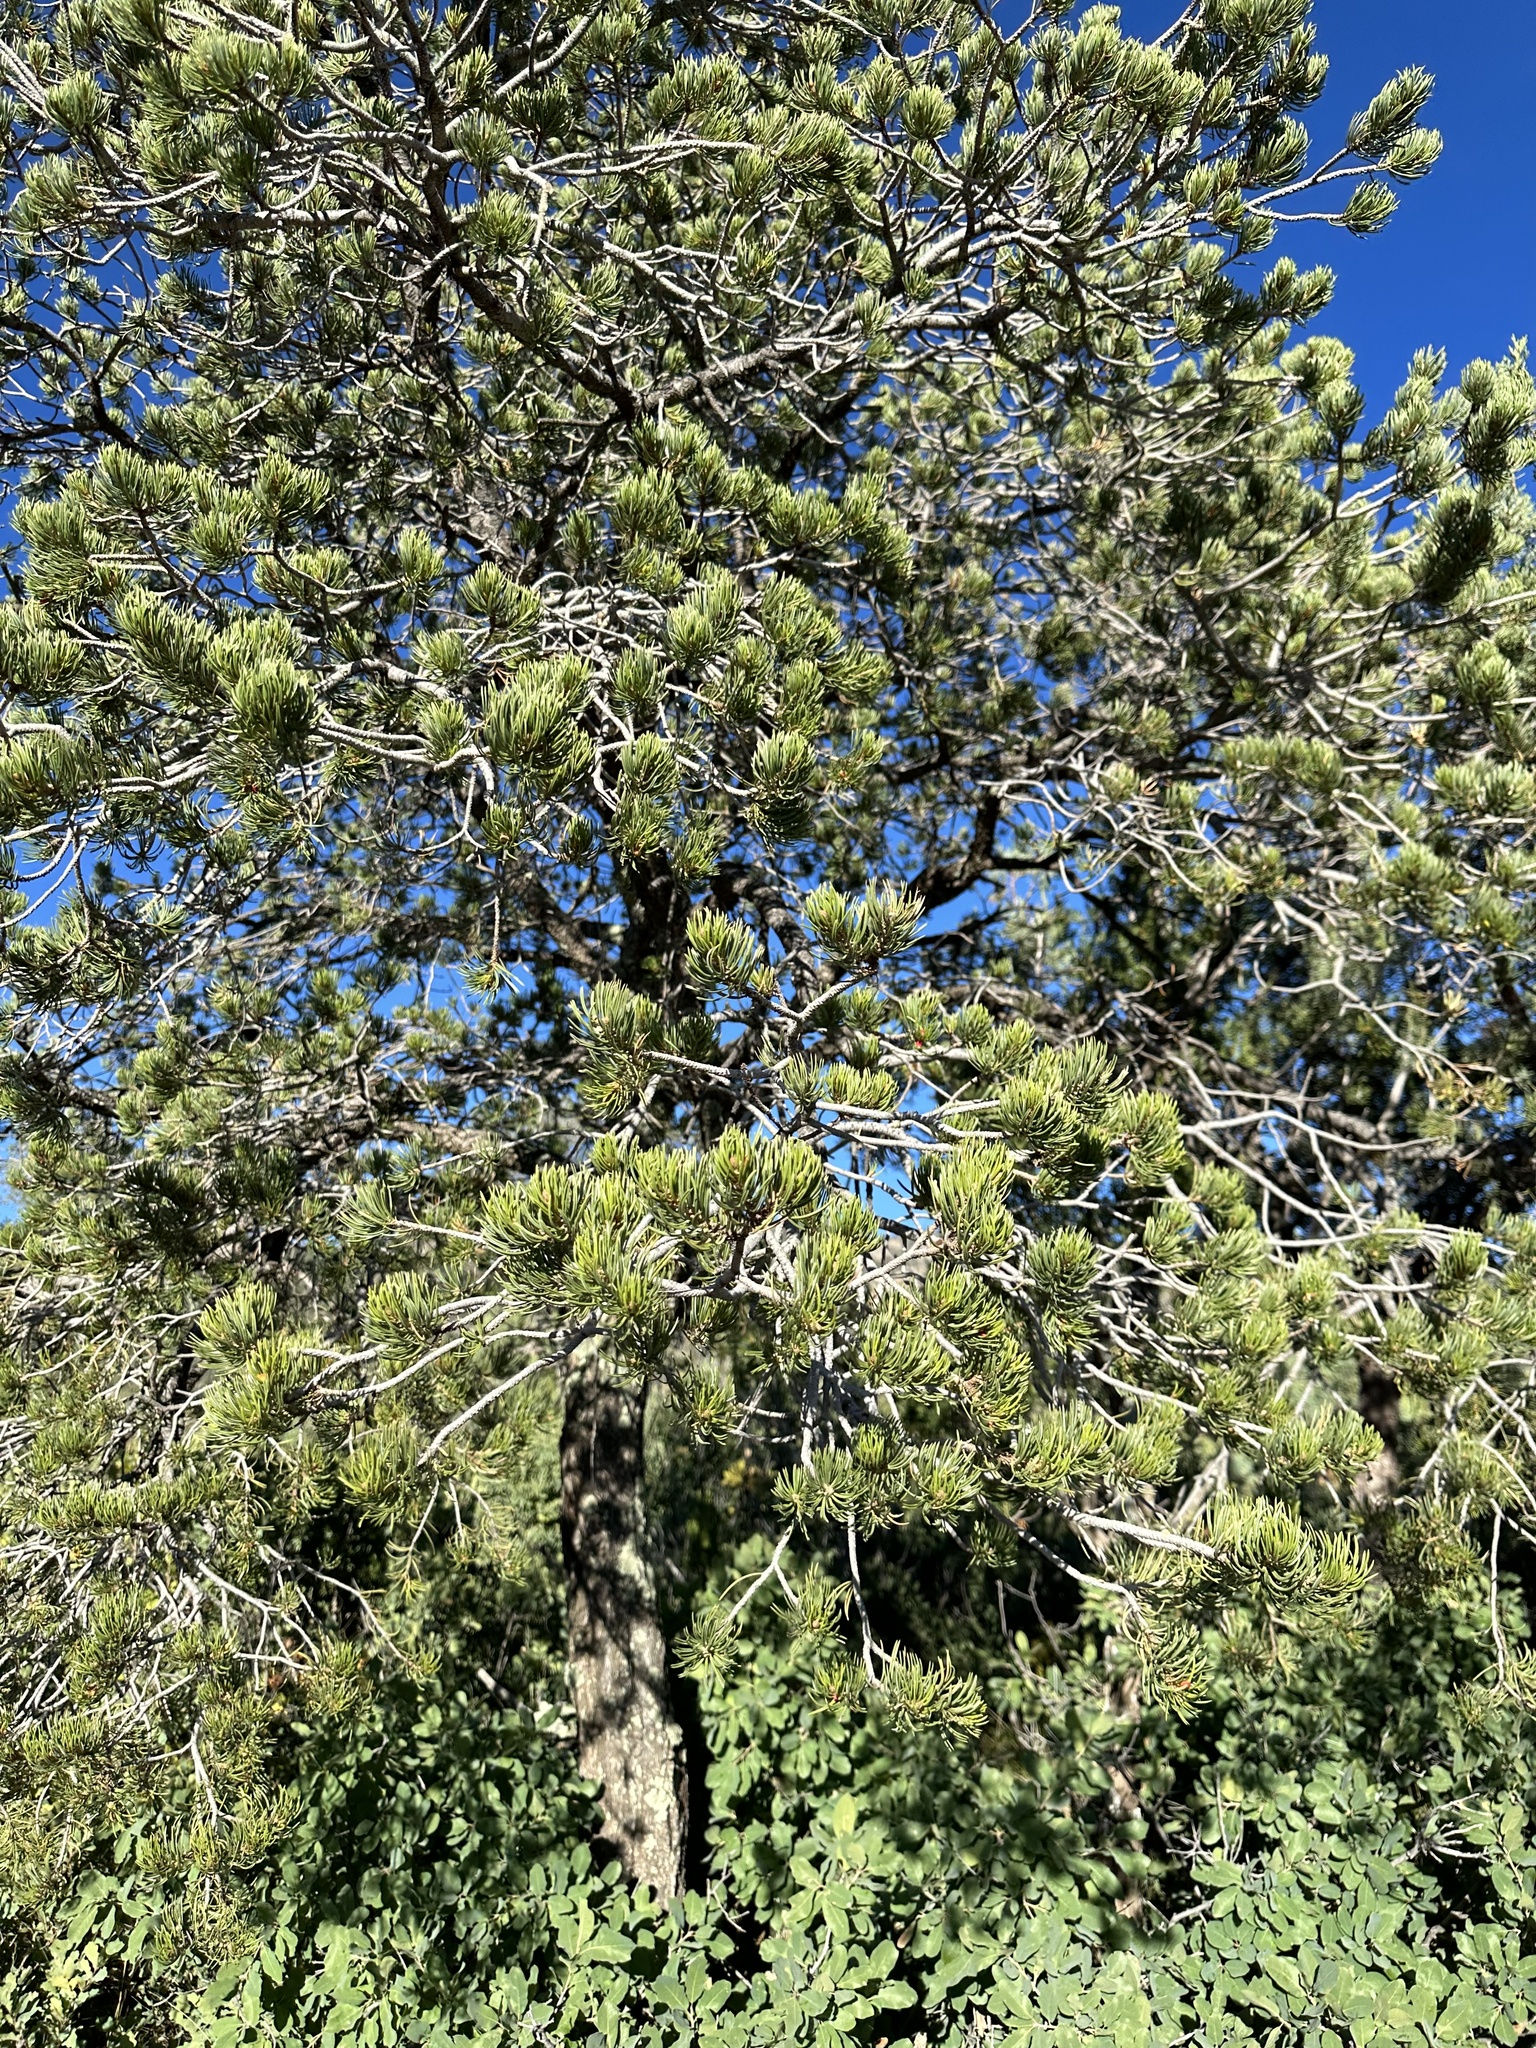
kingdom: Plantae
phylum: Tracheophyta
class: Pinopsida
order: Pinales
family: Pinaceae
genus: Pinus
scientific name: Pinus edulis
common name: Colorado pinyon
